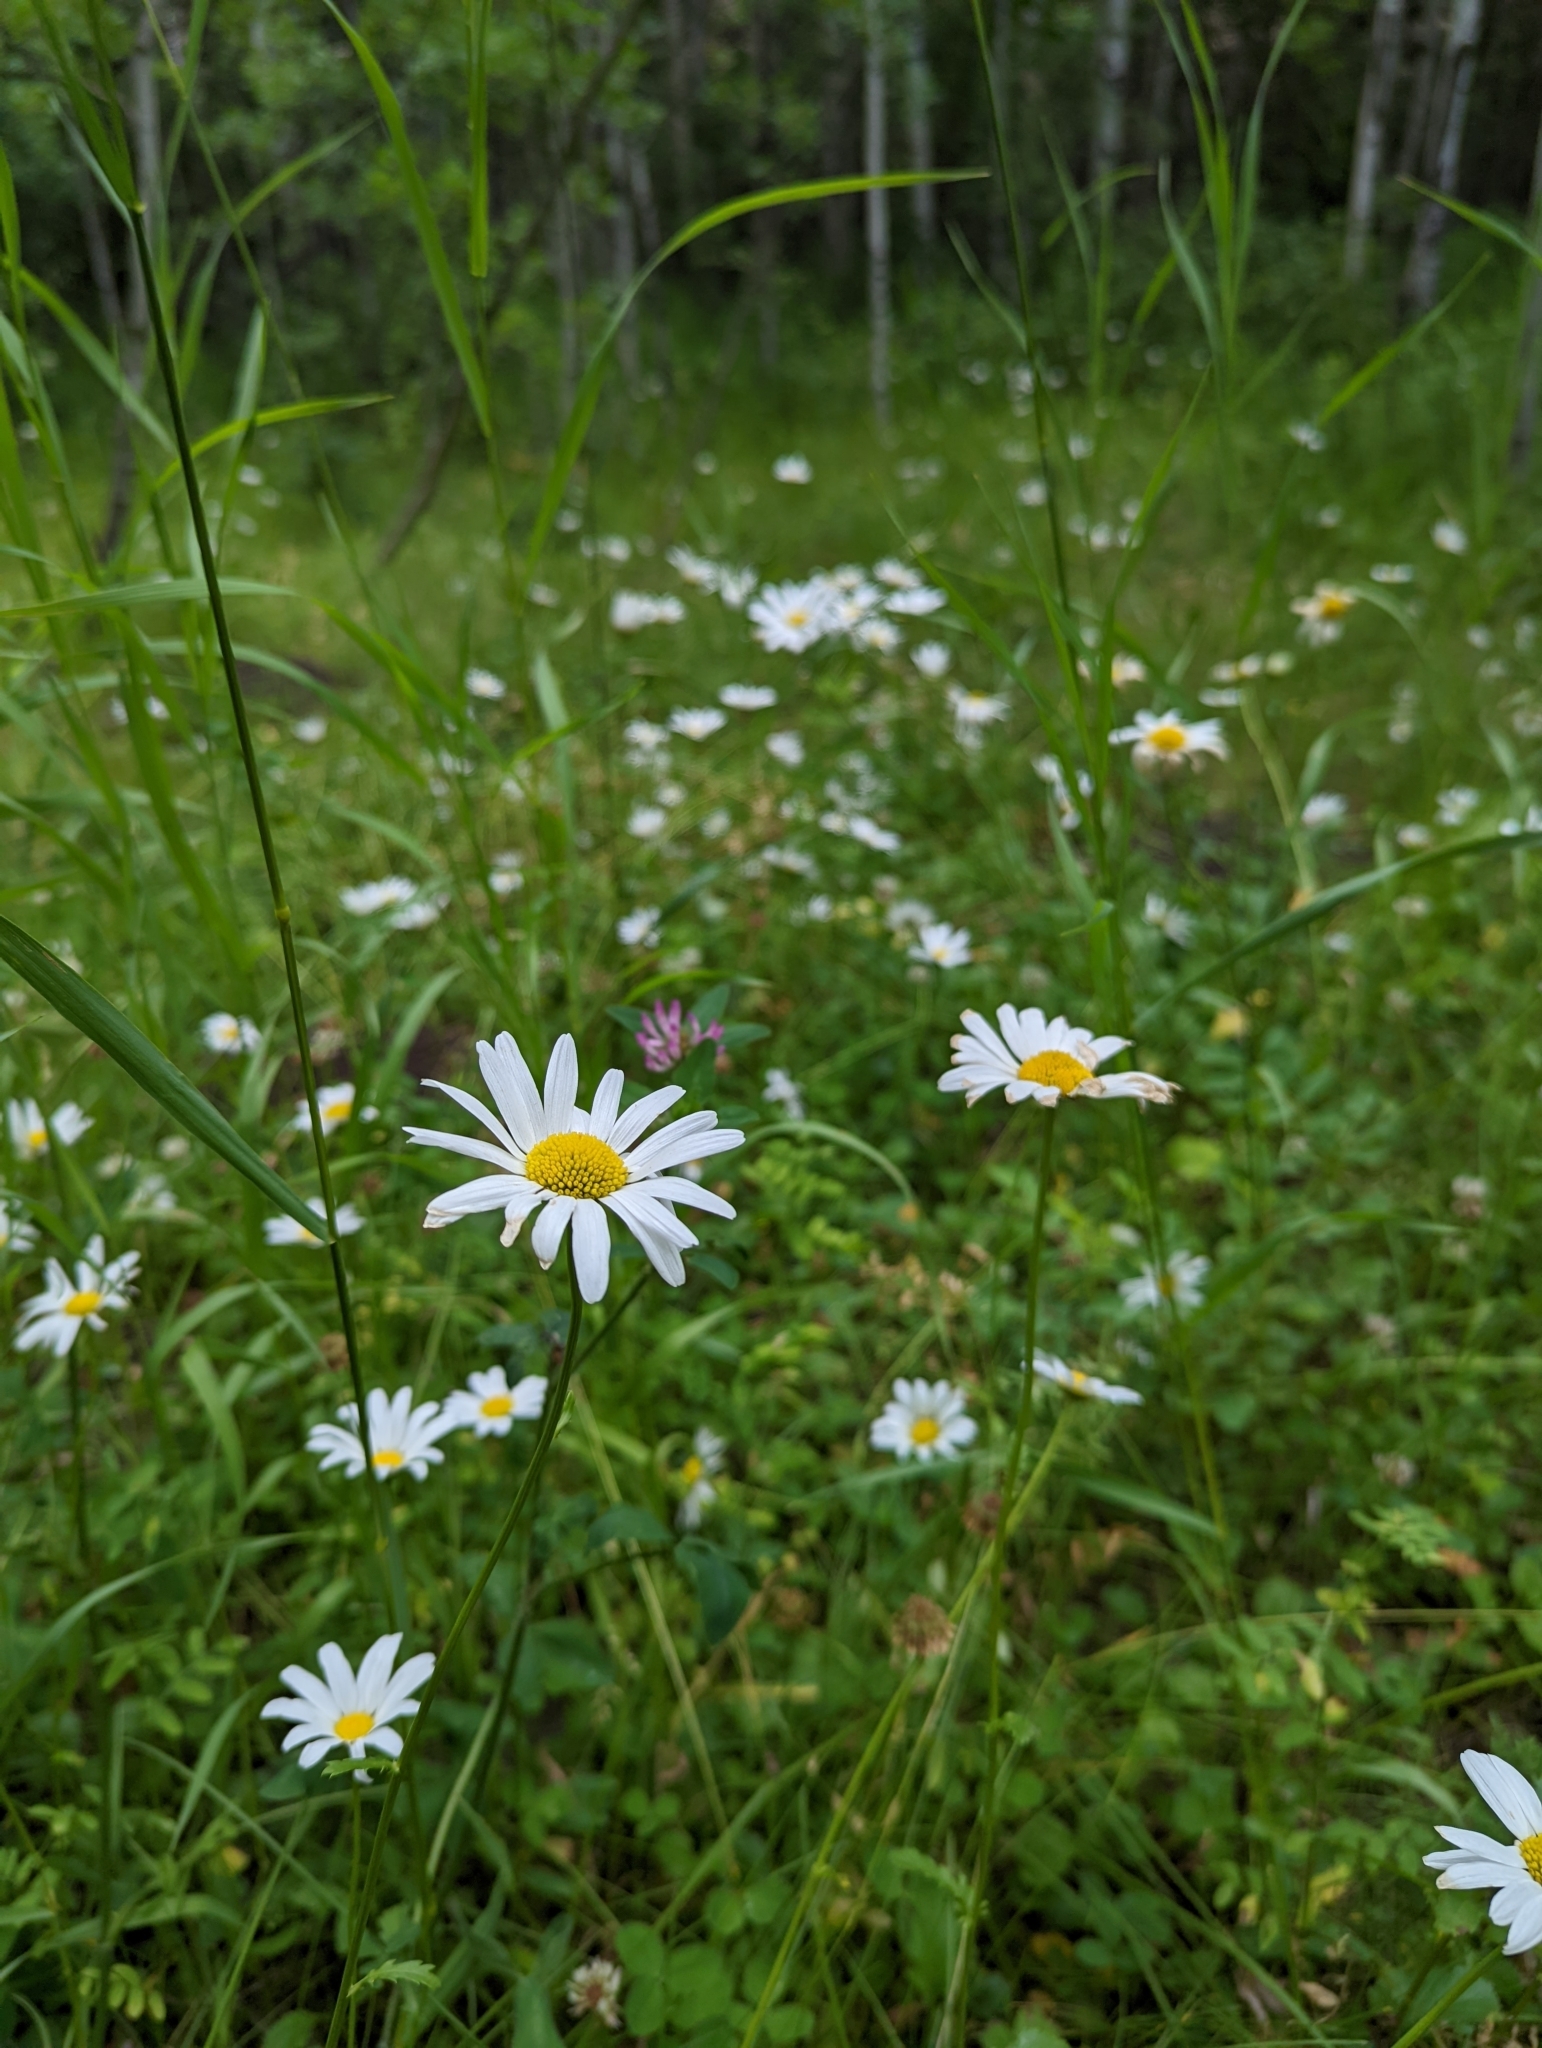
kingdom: Plantae
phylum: Tracheophyta
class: Magnoliopsida
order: Asterales
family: Asteraceae
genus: Leucanthemum
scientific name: Leucanthemum vulgare
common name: Oxeye daisy
